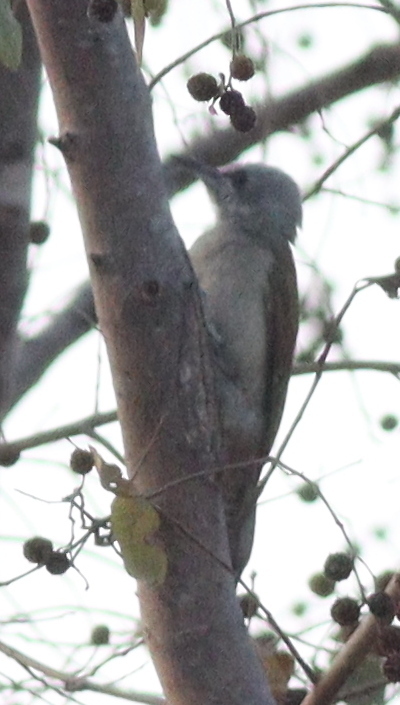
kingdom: Animalia
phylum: Chordata
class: Aves
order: Piciformes
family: Picidae
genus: Dendropicos
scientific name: Dendropicos goertae
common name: African grey woodpecker
